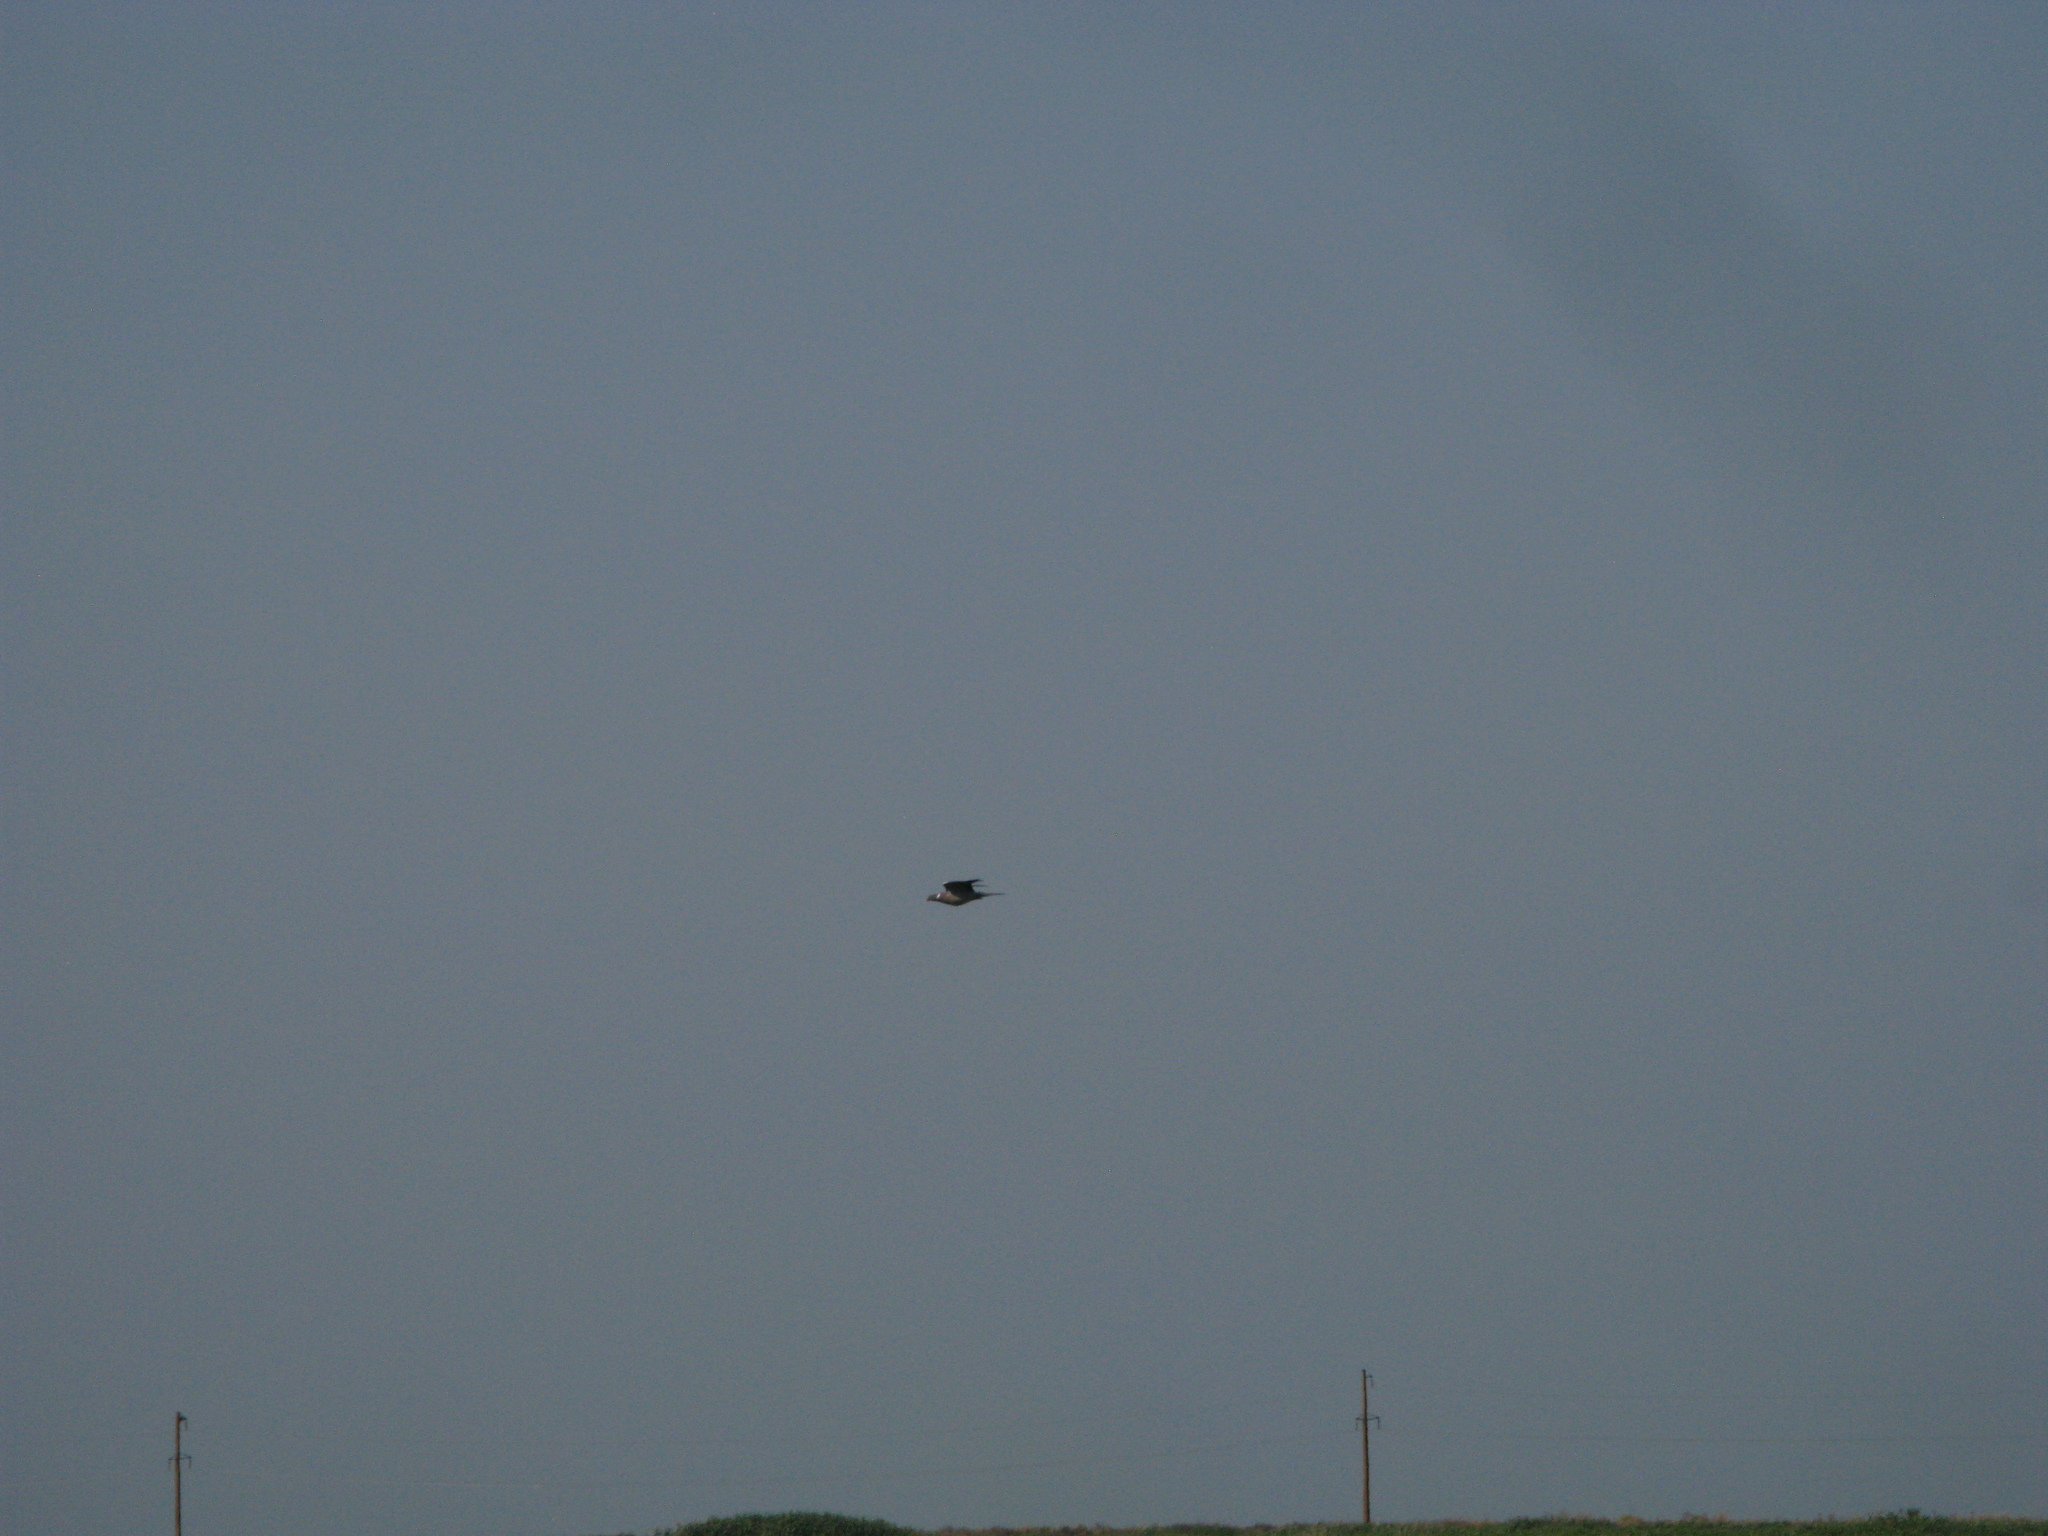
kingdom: Animalia
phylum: Chordata
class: Aves
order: Columbiformes
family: Columbidae
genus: Columba
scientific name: Columba palumbus
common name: Common wood pigeon
